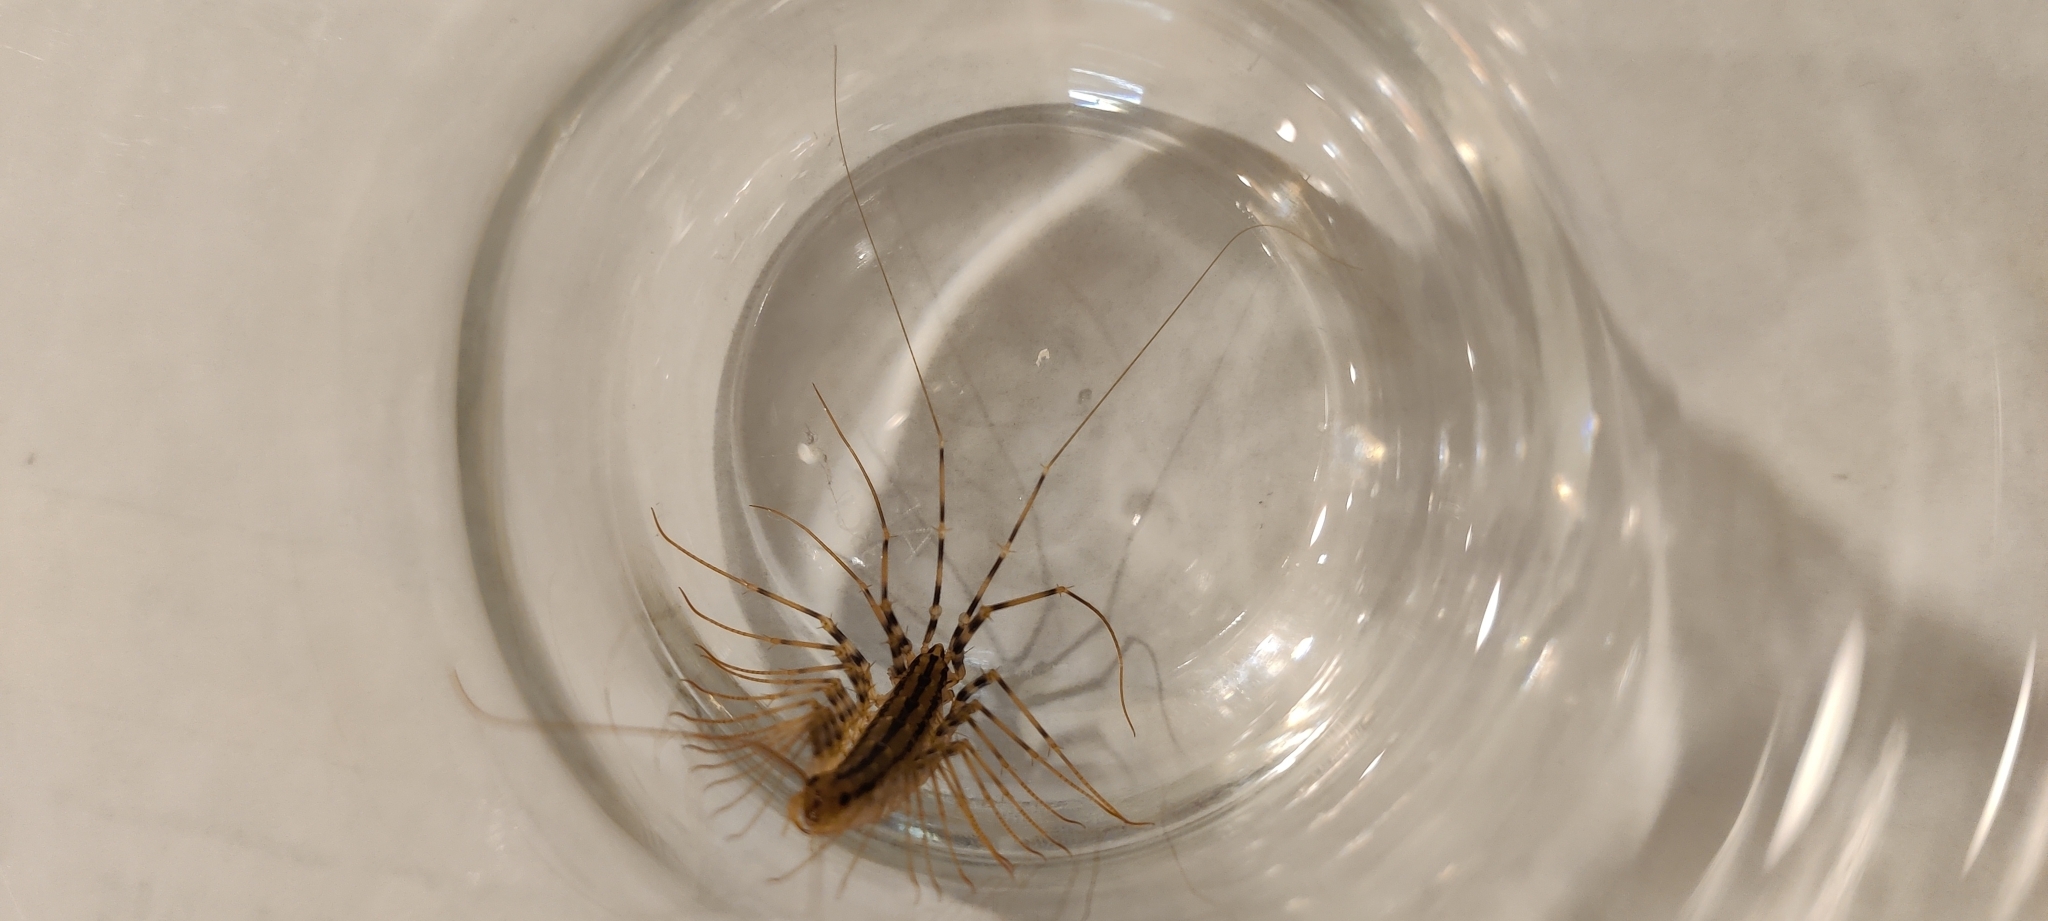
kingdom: Animalia
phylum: Arthropoda
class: Chilopoda
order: Scutigeromorpha
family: Scutigeridae
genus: Scutigera
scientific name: Scutigera coleoptrata
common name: House centipede
